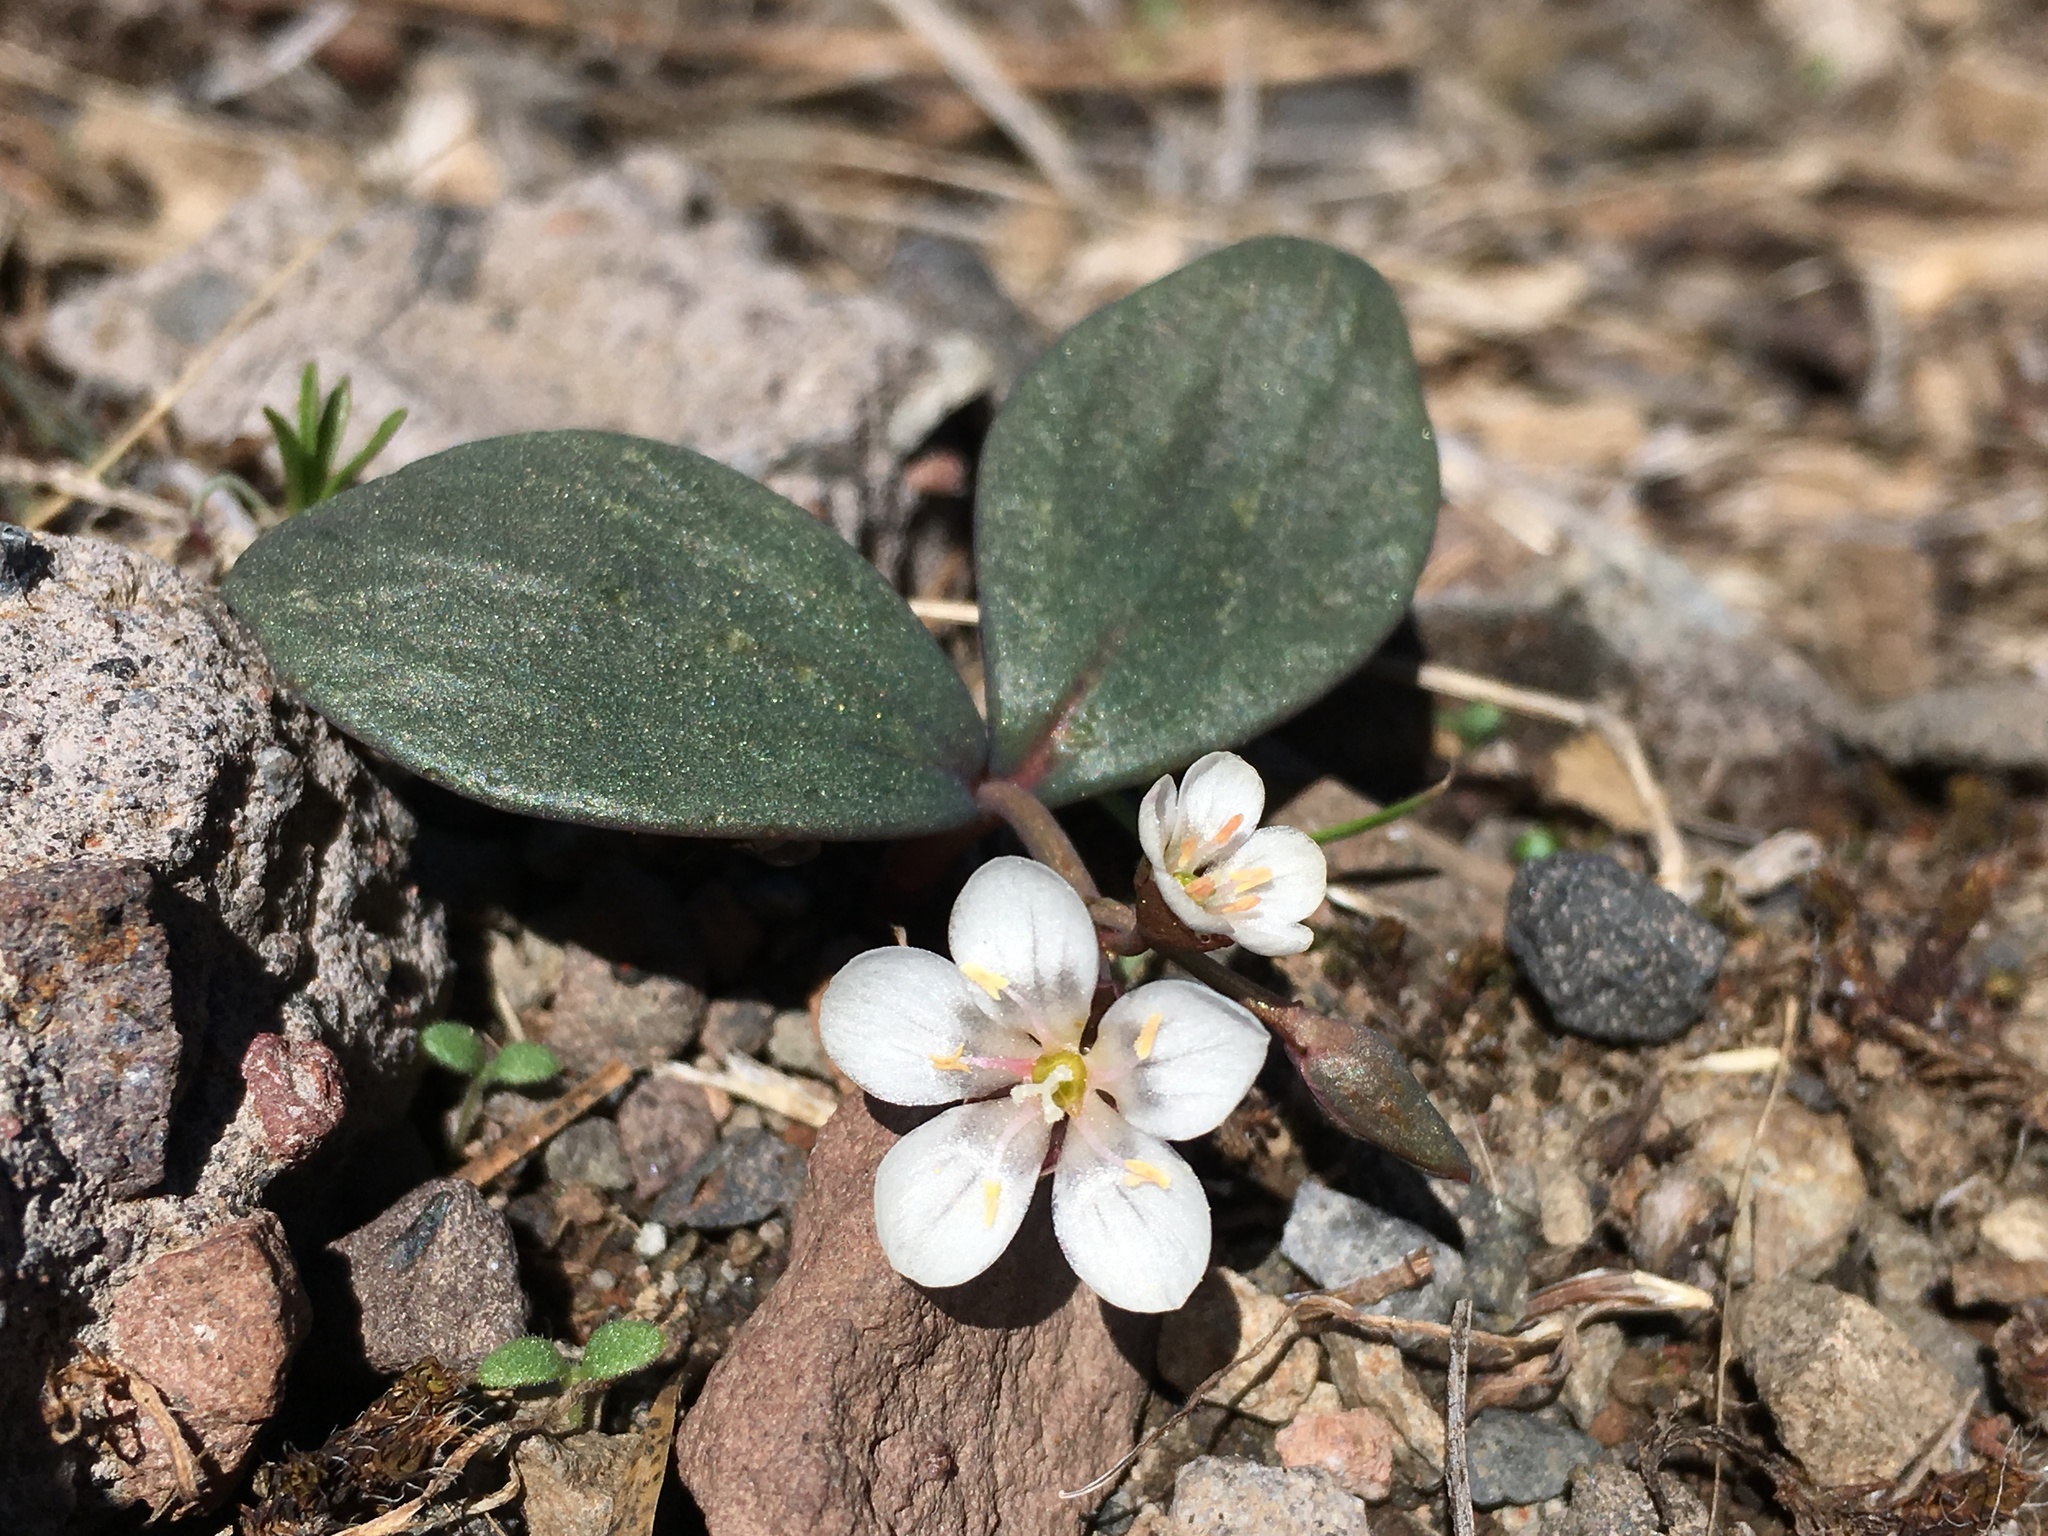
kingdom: Plantae
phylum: Tracheophyta
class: Magnoliopsida
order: Caryophyllales
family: Montiaceae
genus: Claytonia
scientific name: Claytonia crawfordii
